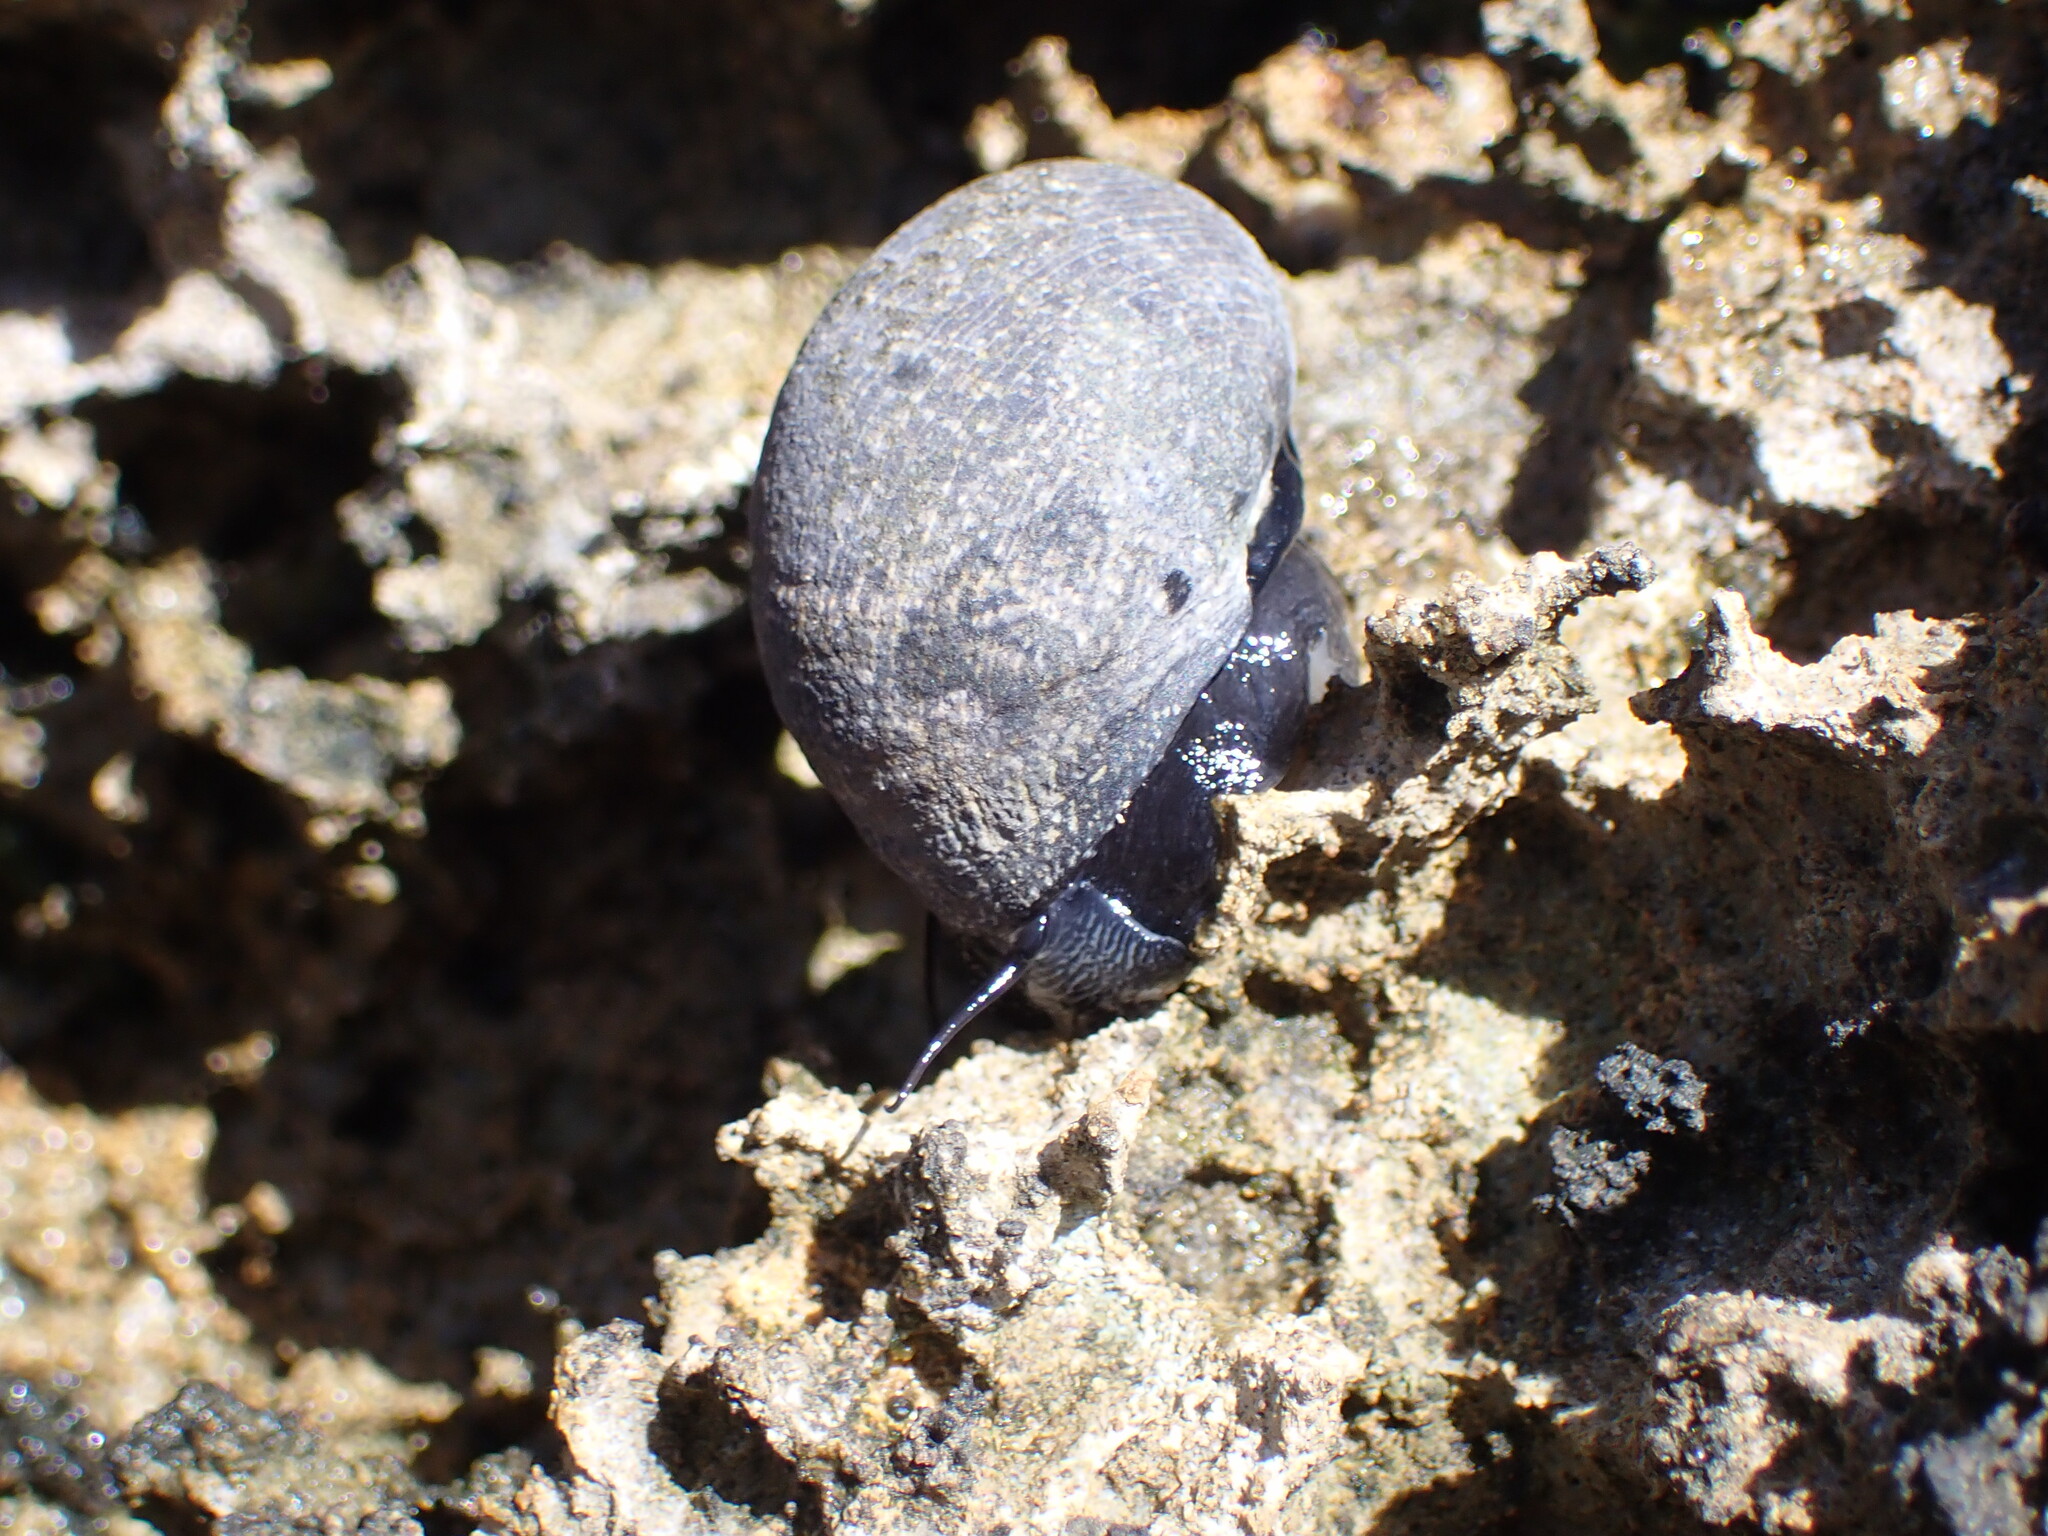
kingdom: Animalia
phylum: Mollusca
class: Gastropoda
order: Cycloneritida
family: Neritidae
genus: Nerita
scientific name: Nerita melanotragus
